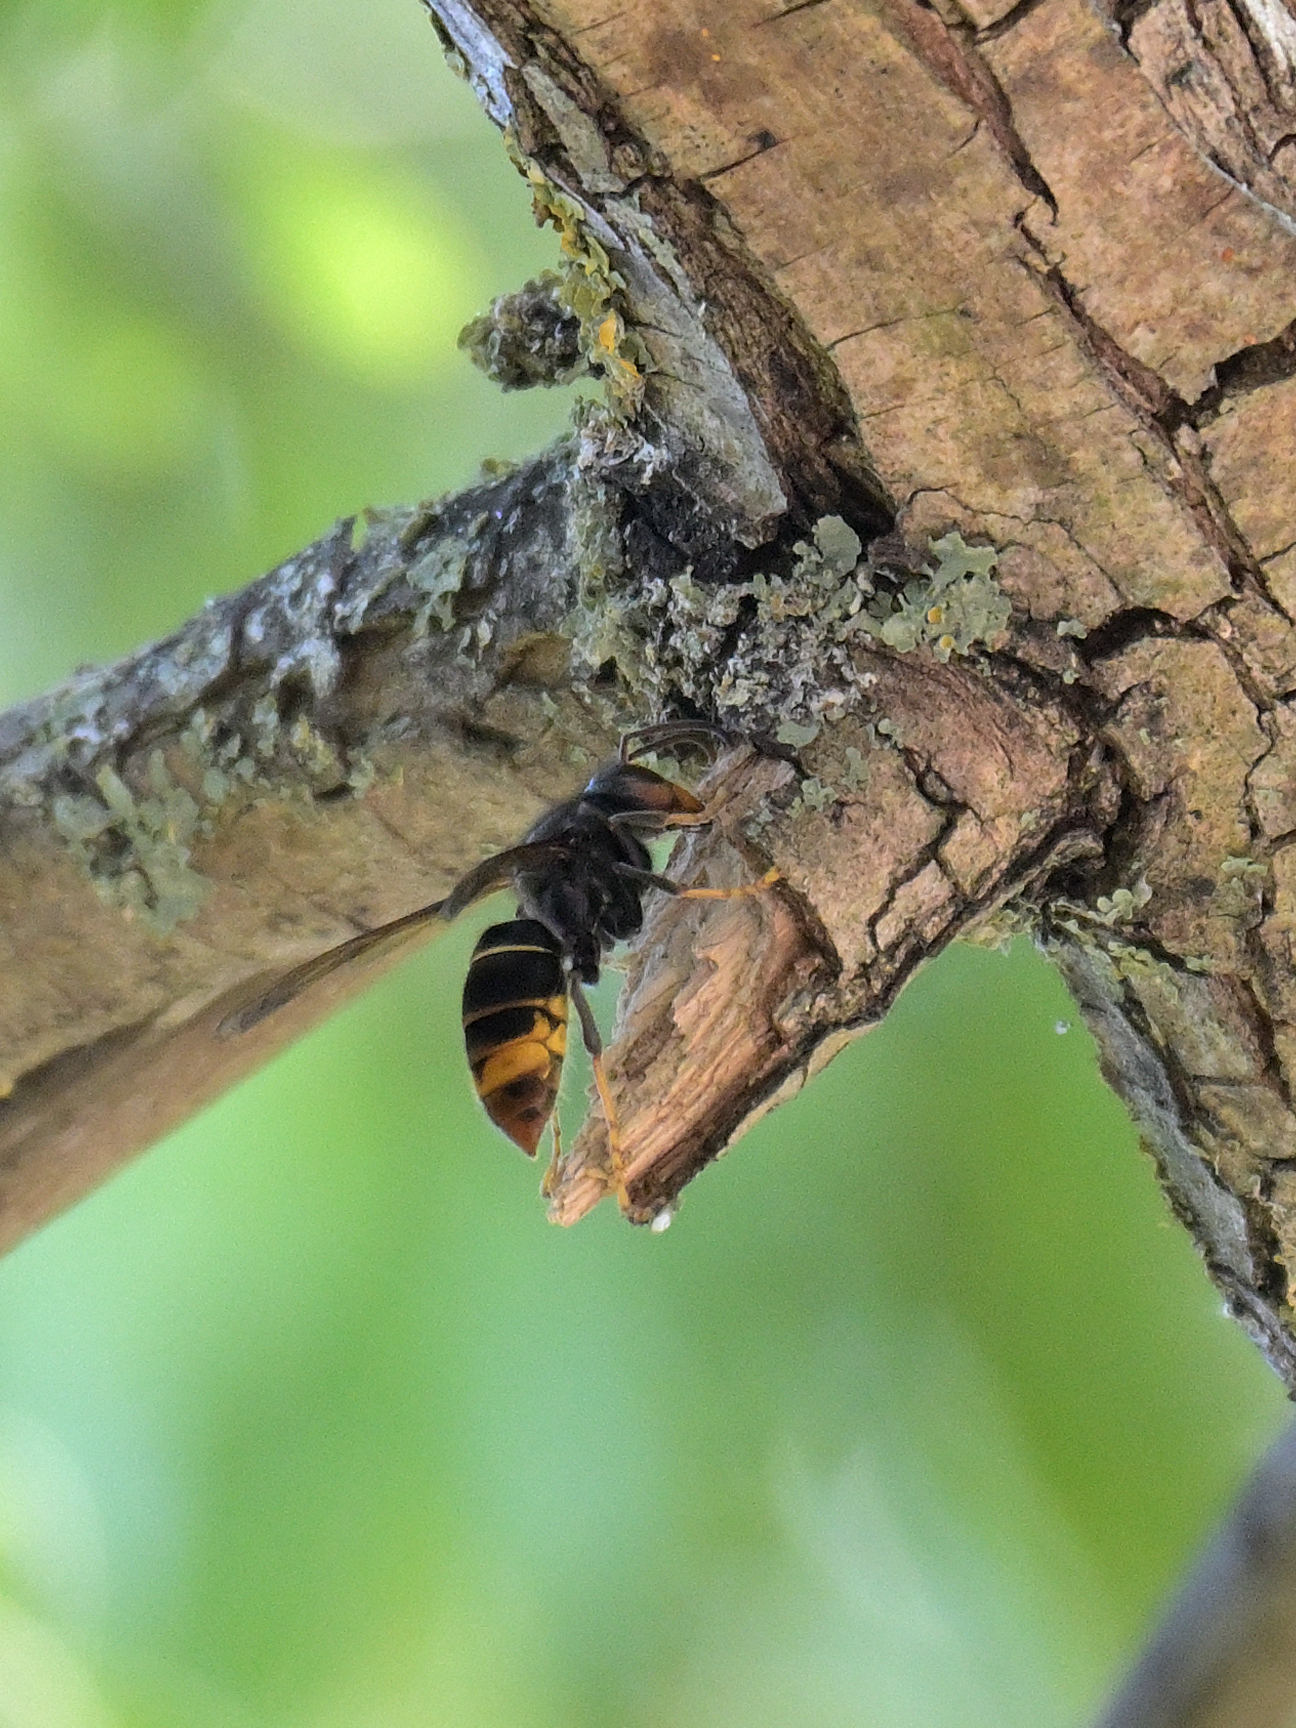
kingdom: Animalia
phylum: Arthropoda
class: Insecta
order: Hymenoptera
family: Vespidae
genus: Vespa
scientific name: Vespa velutina
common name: Asian hornet
